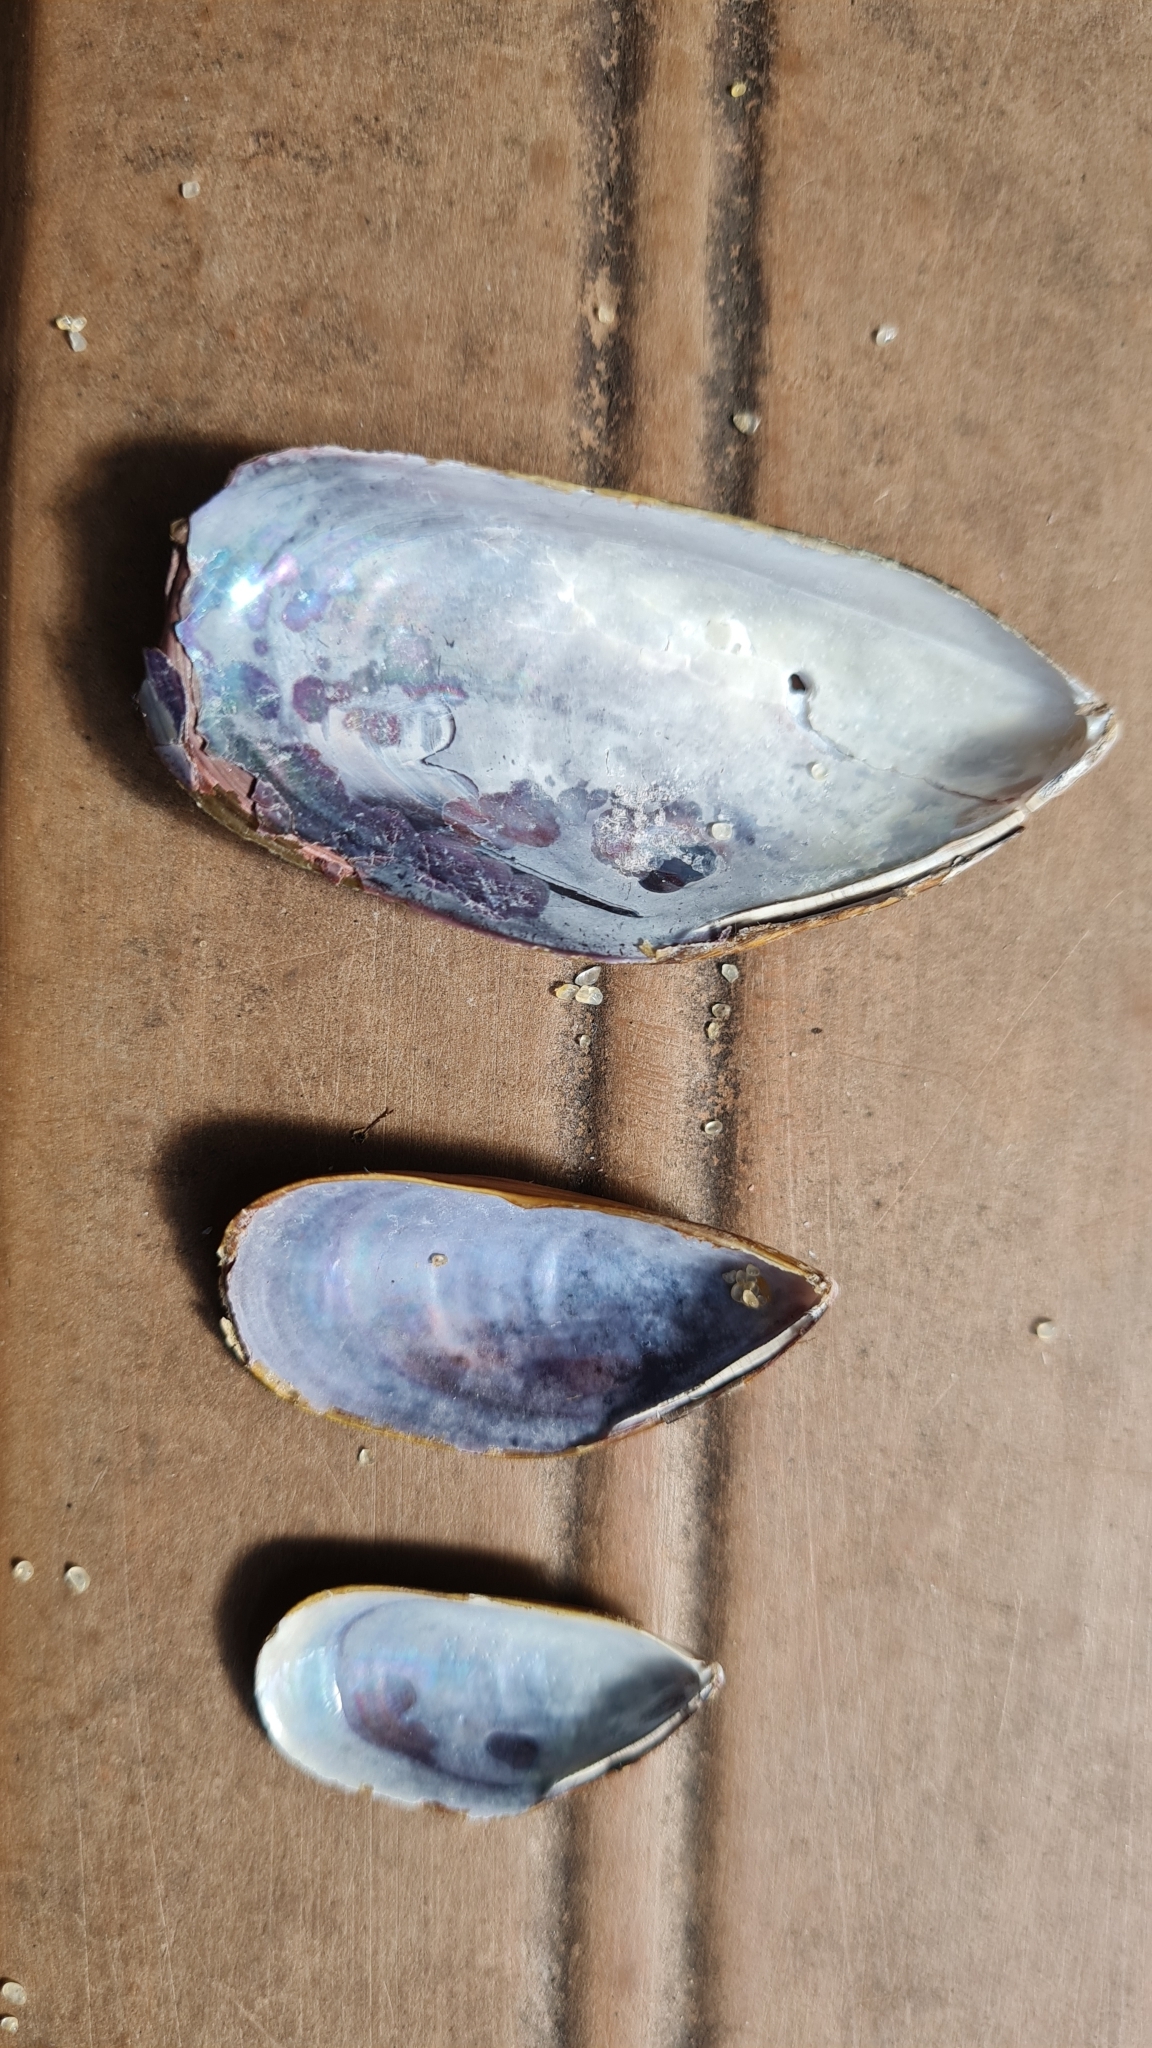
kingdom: Animalia
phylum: Mollusca
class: Bivalvia
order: Mytilida
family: Mytilidae
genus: Perna
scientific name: Perna perna
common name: Mexilhao mussel
